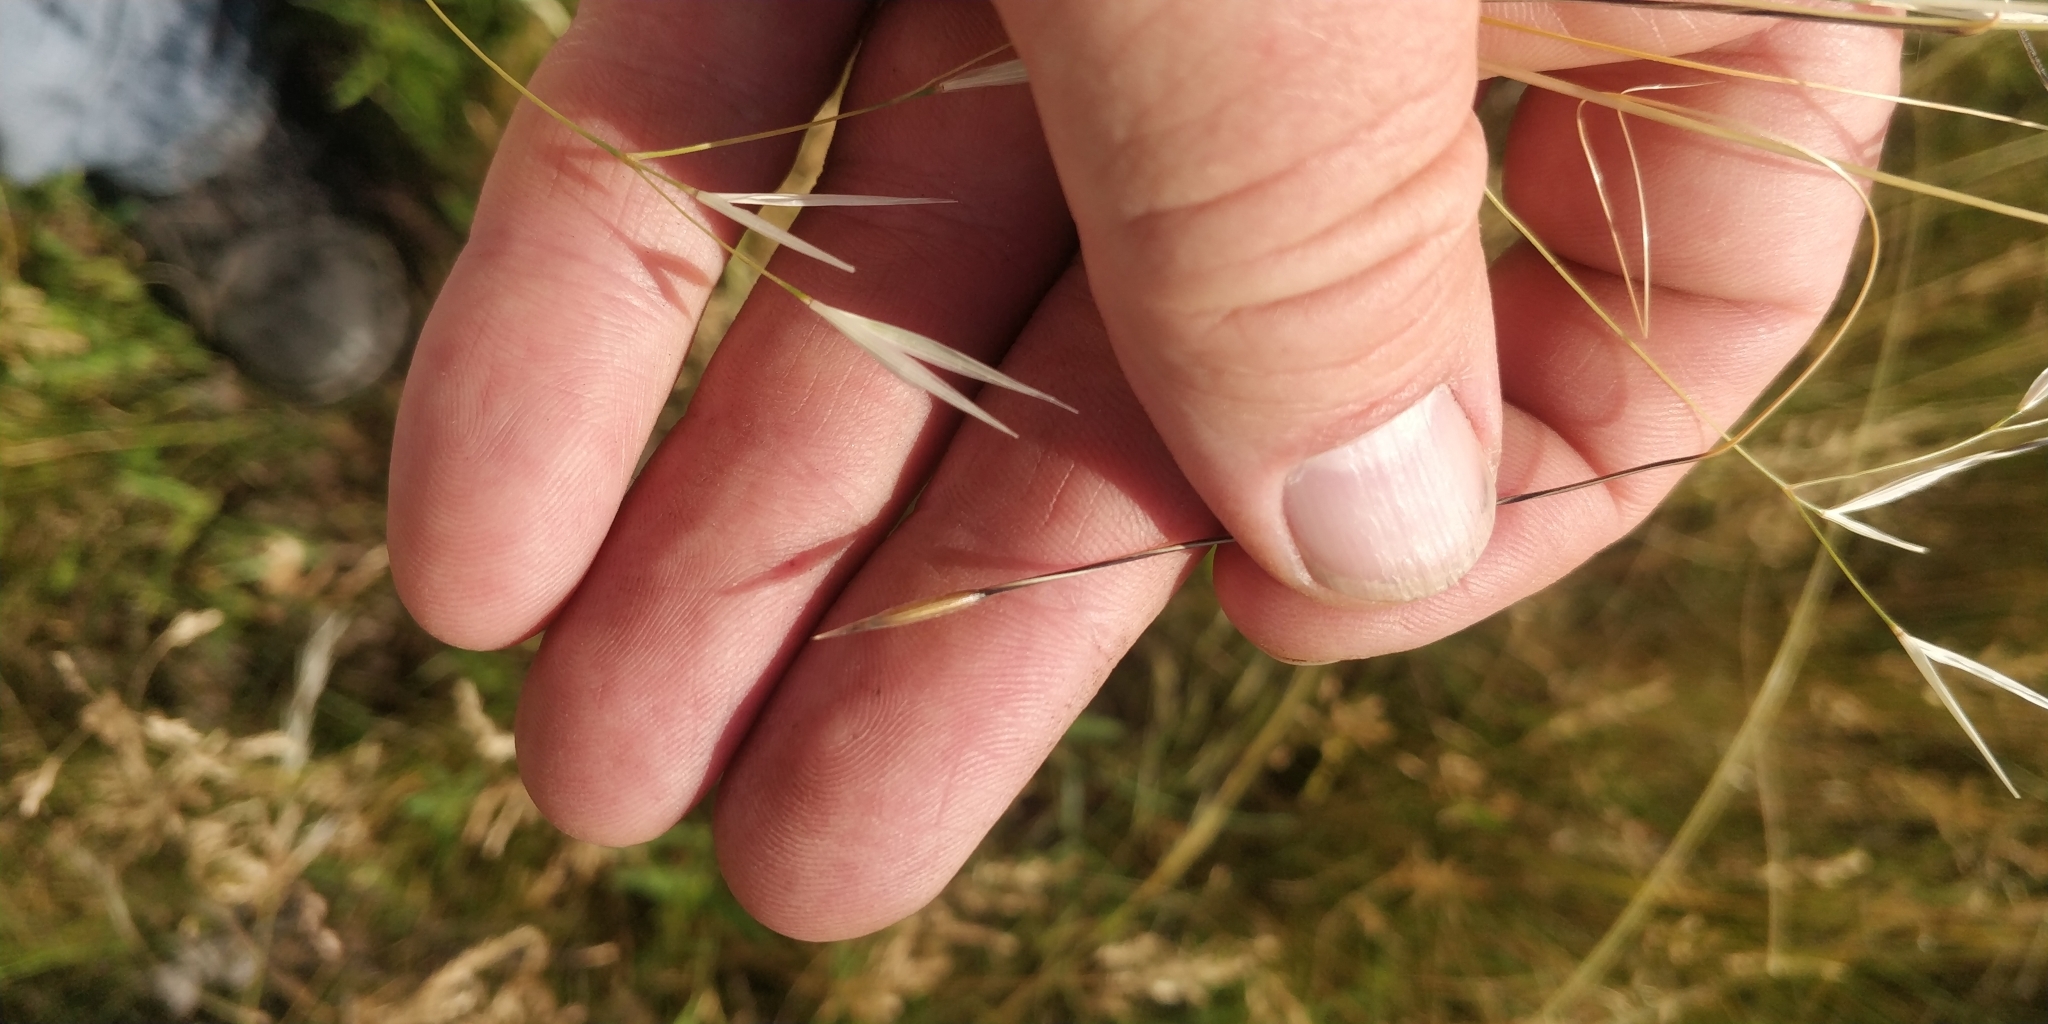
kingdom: Plantae
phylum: Tracheophyta
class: Liliopsida
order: Poales
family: Poaceae
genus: Hesperostipa
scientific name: Hesperostipa comata
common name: Needle-and-thread grass
